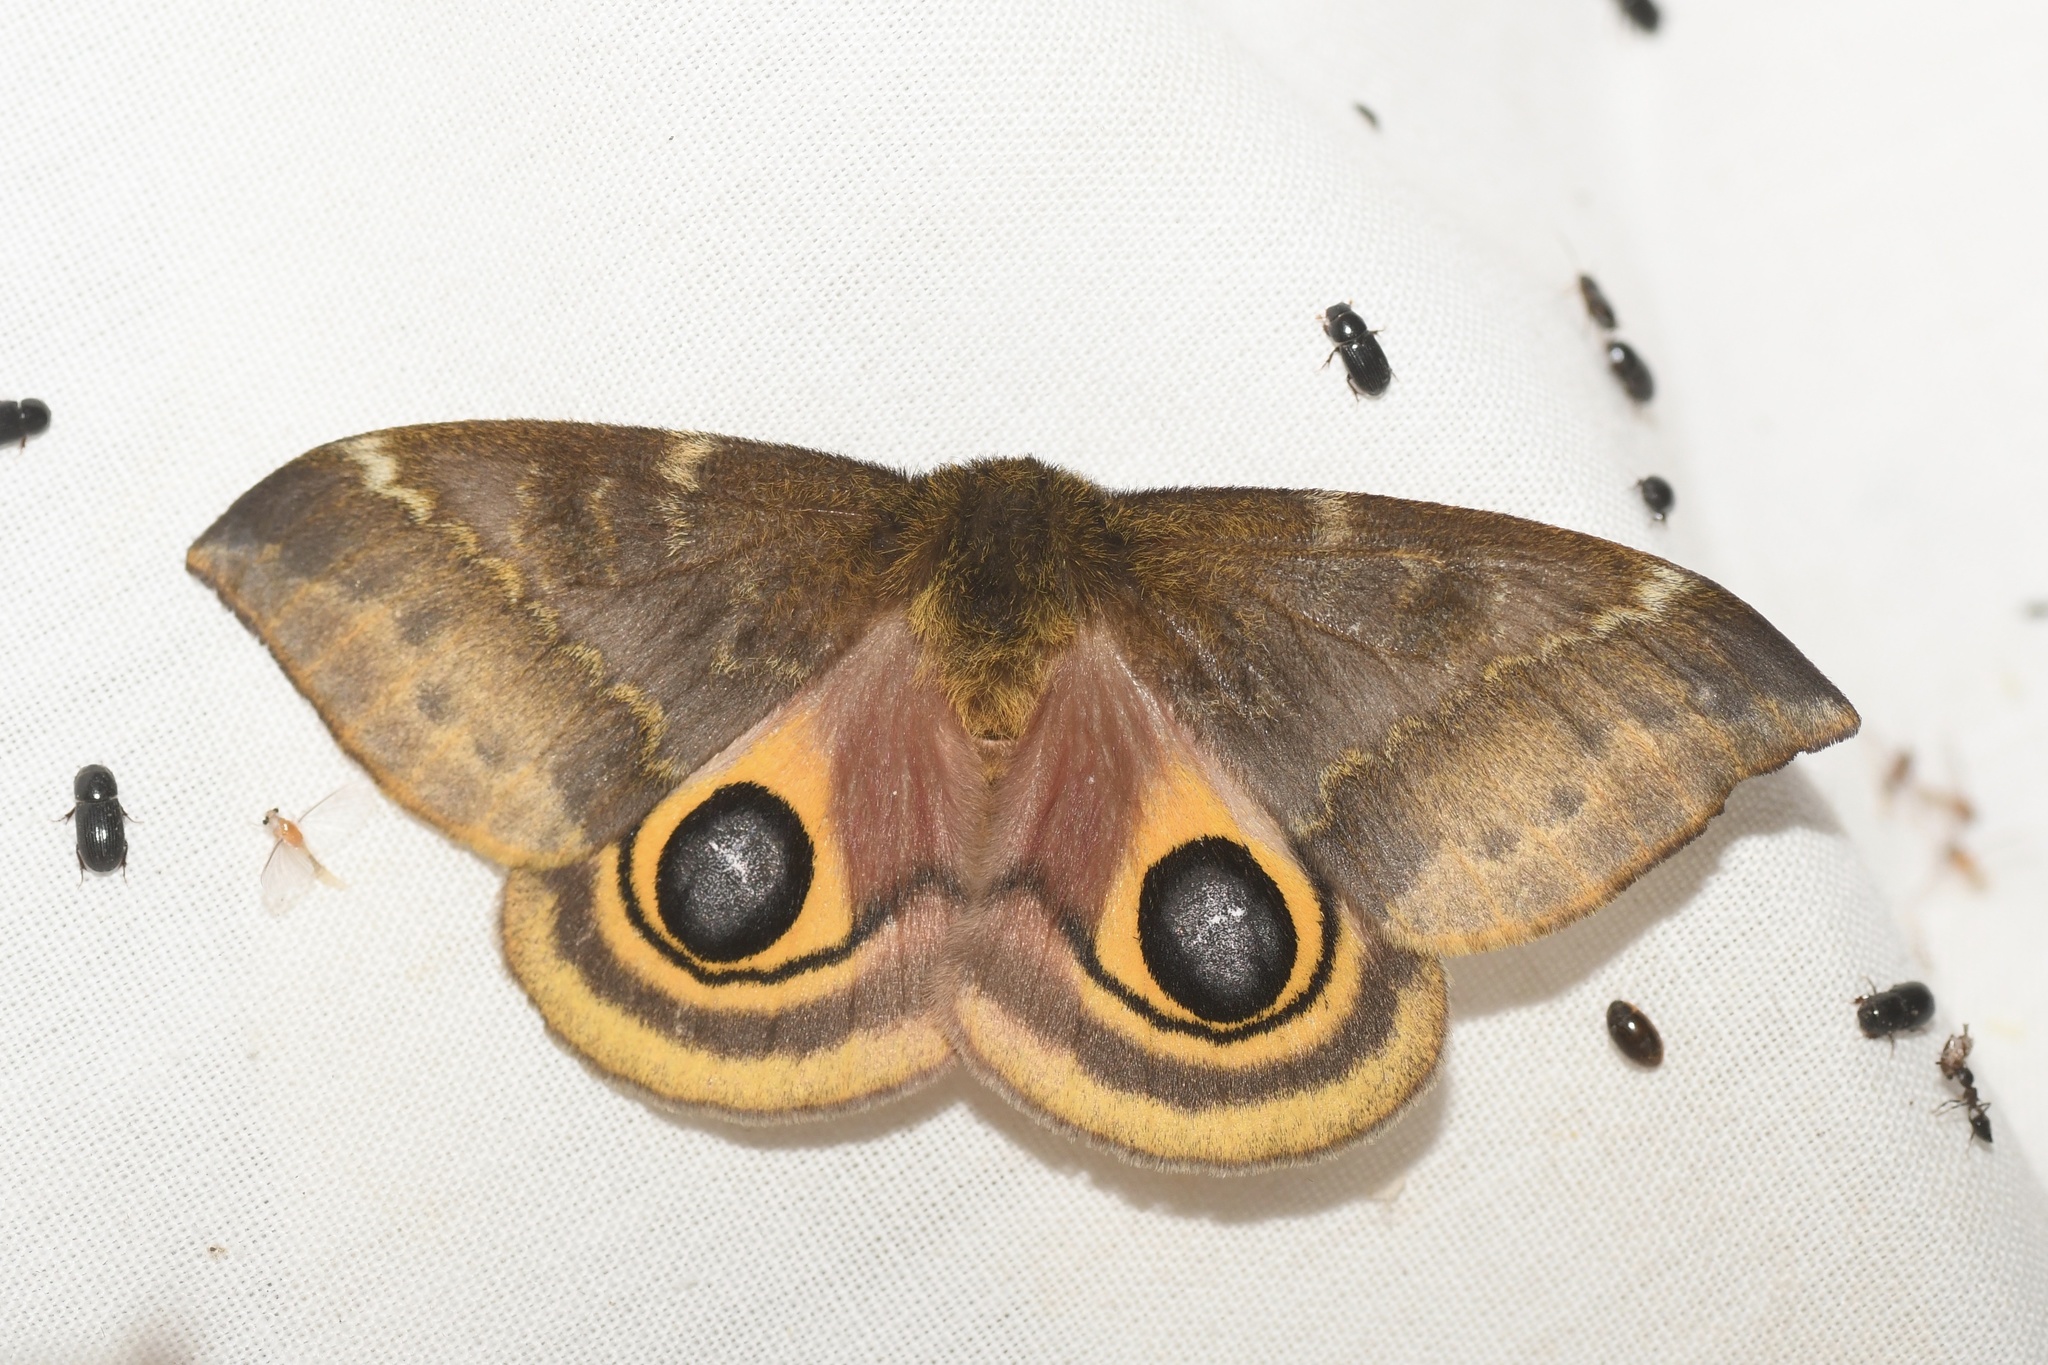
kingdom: Animalia
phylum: Arthropoda
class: Insecta
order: Lepidoptera
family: Saturniidae
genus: Automeris
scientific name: Automeris io
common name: Io moth
